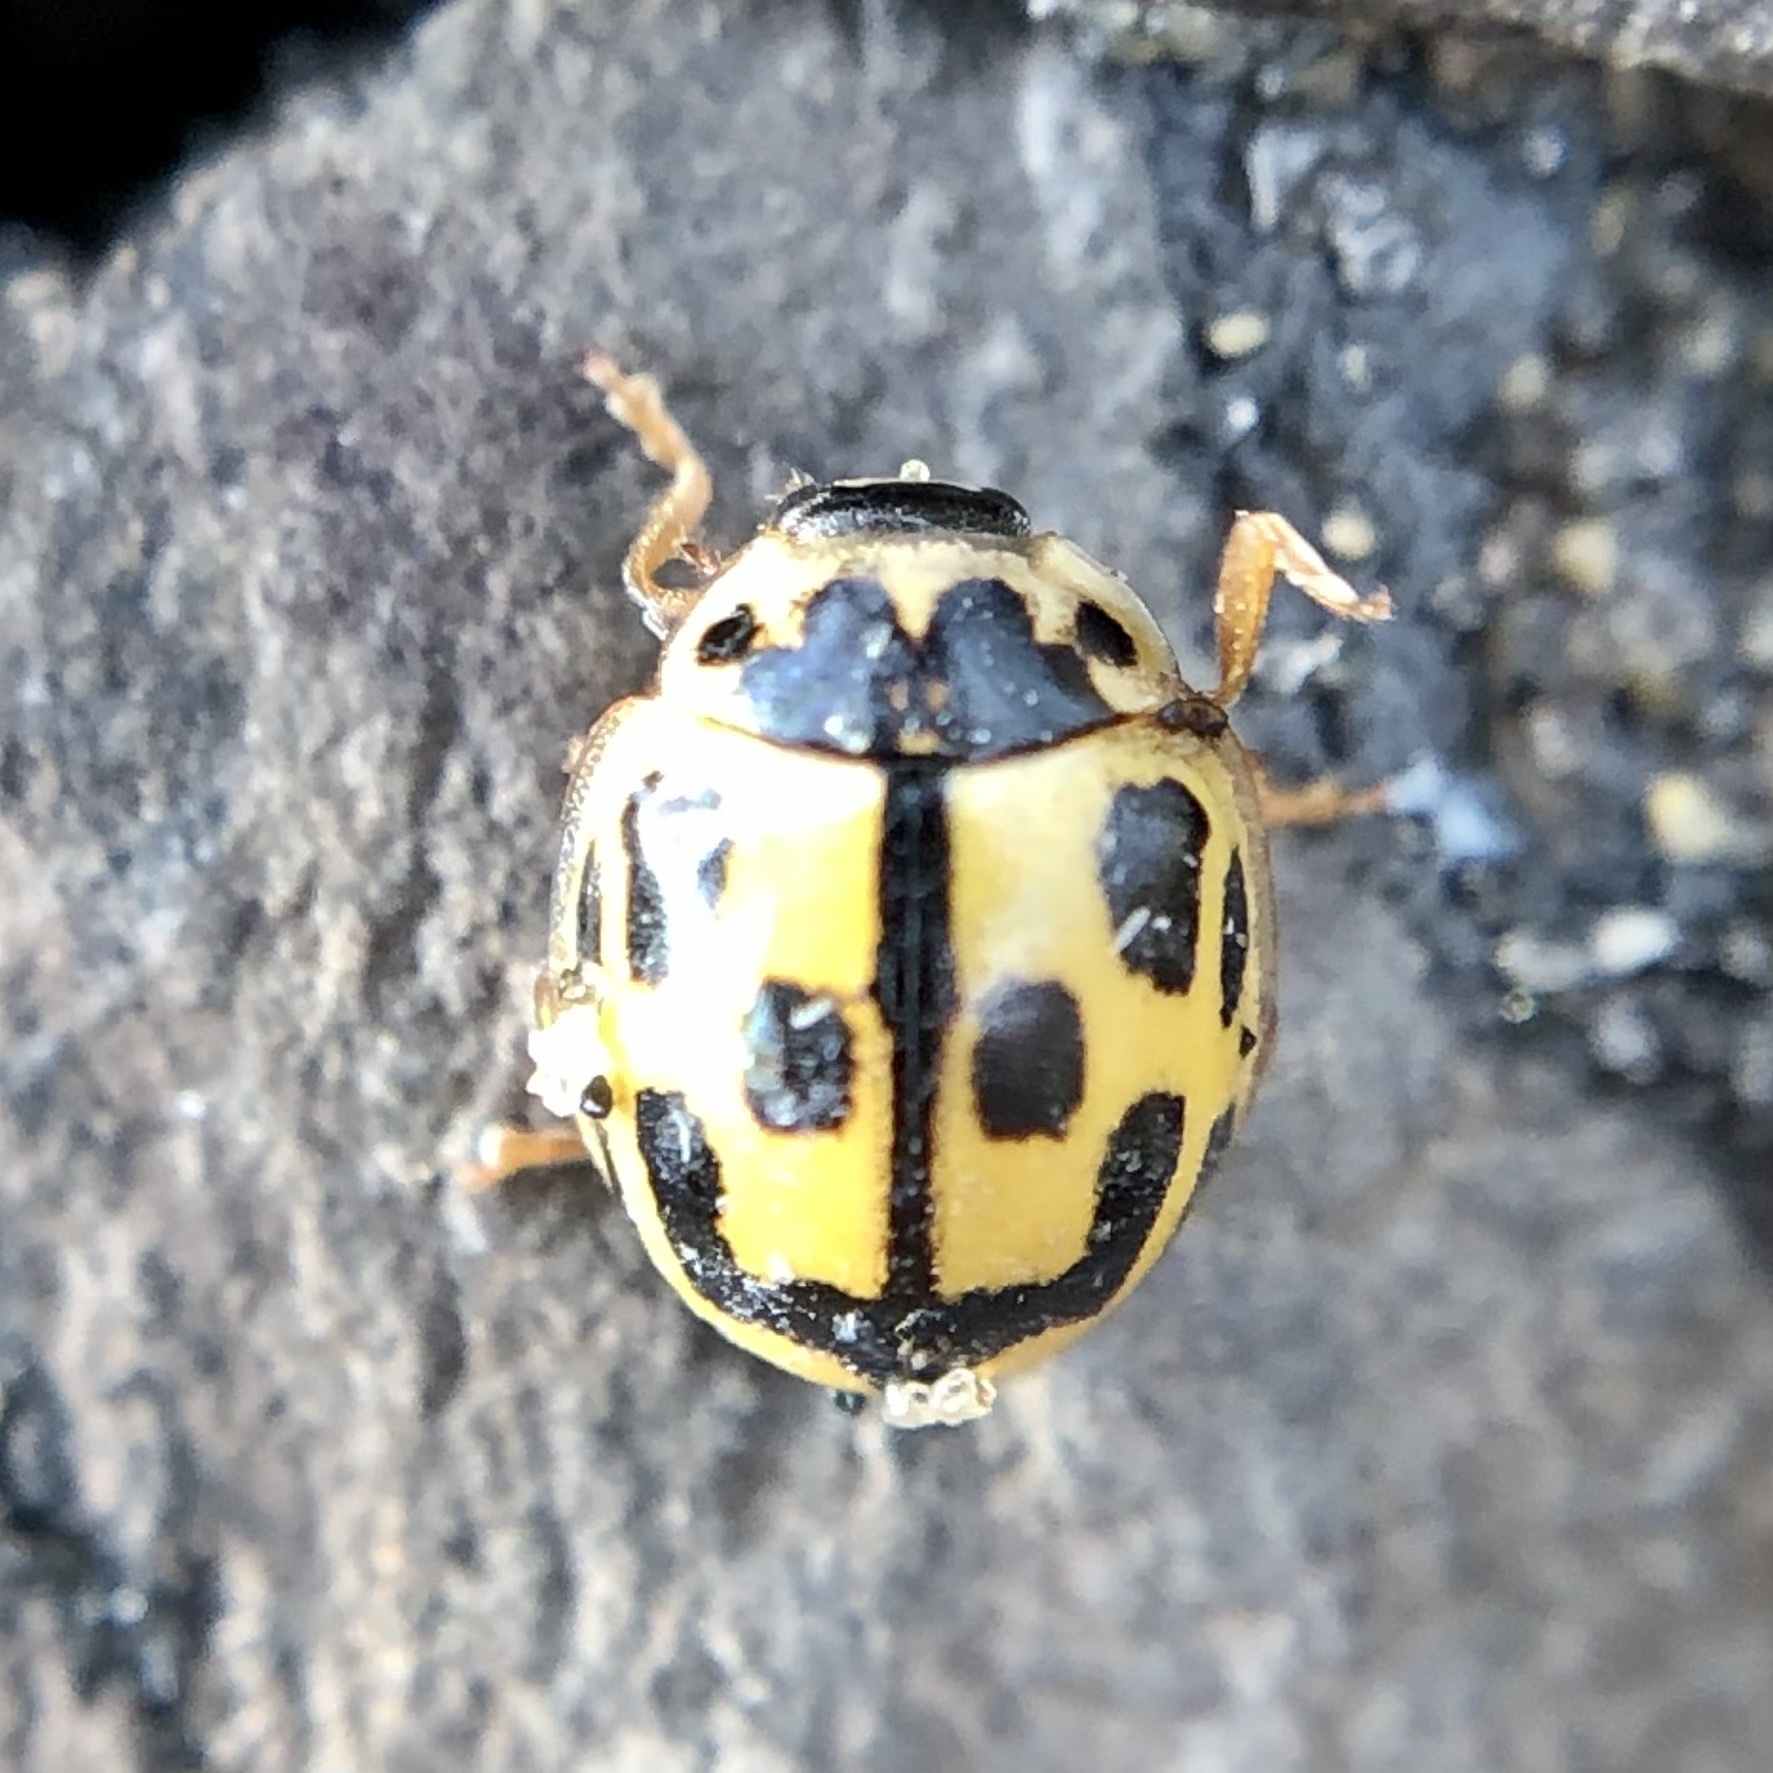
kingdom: Animalia
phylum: Arthropoda
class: Insecta
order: Coleoptera
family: Coccinellidae
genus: Propylaea
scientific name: Propylaea quatuordecimpunctata
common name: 14-spotted ladybird beetle
